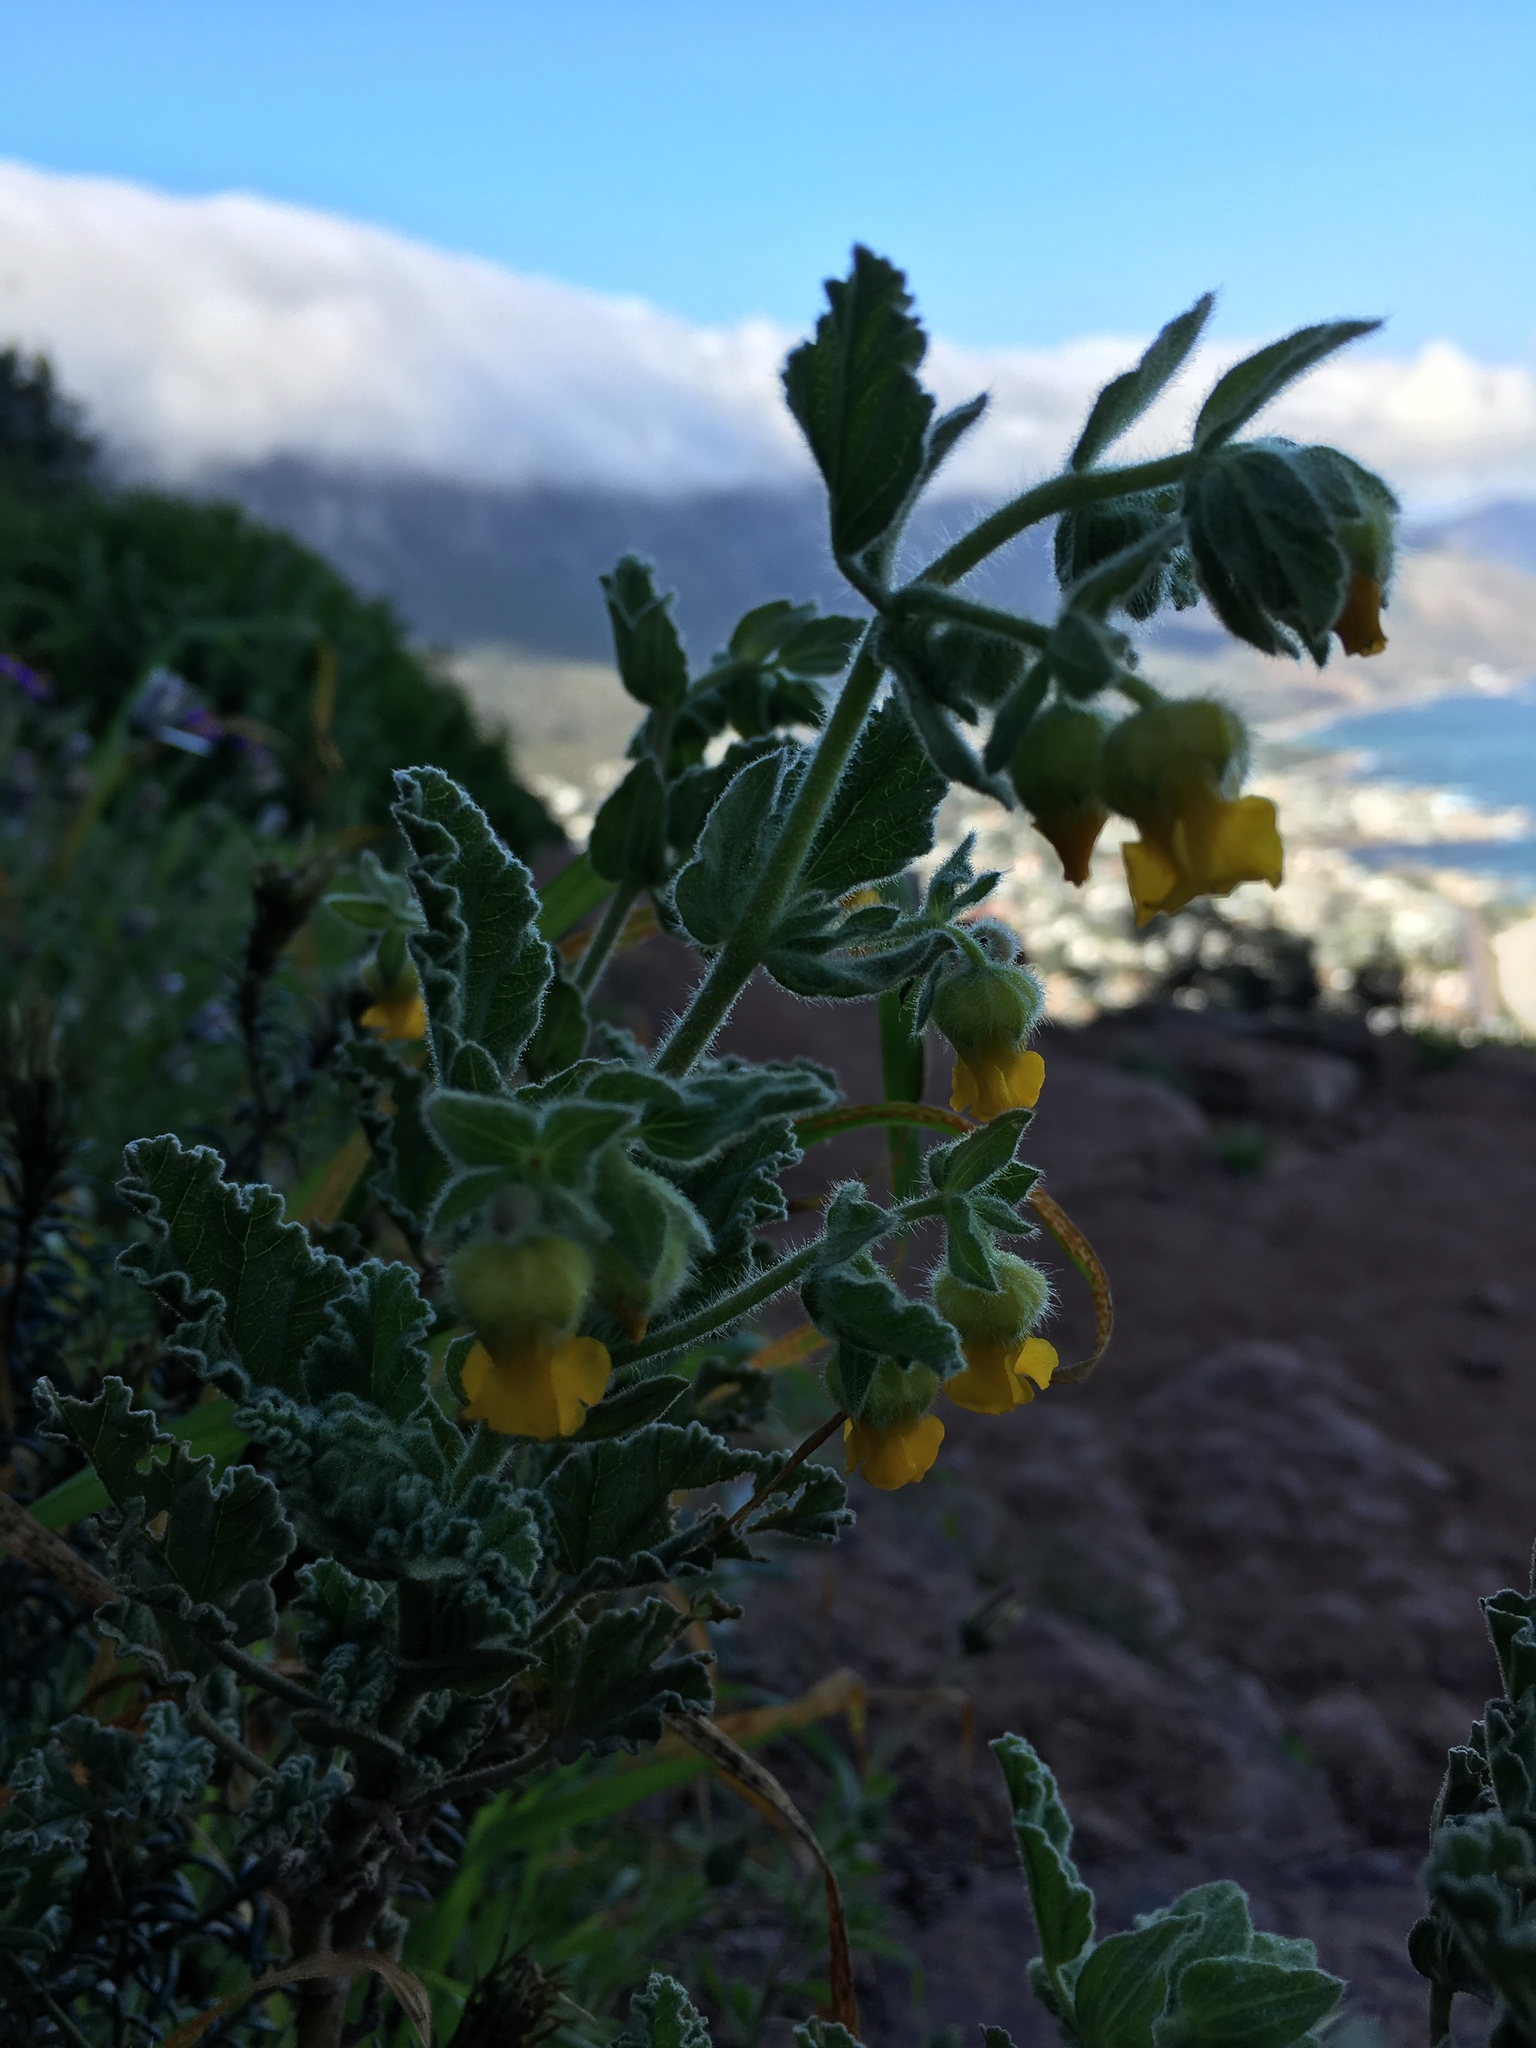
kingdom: Plantae
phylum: Tracheophyta
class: Magnoliopsida
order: Malvales
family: Malvaceae
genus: Hermannia
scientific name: Hermannia althaeifolia
